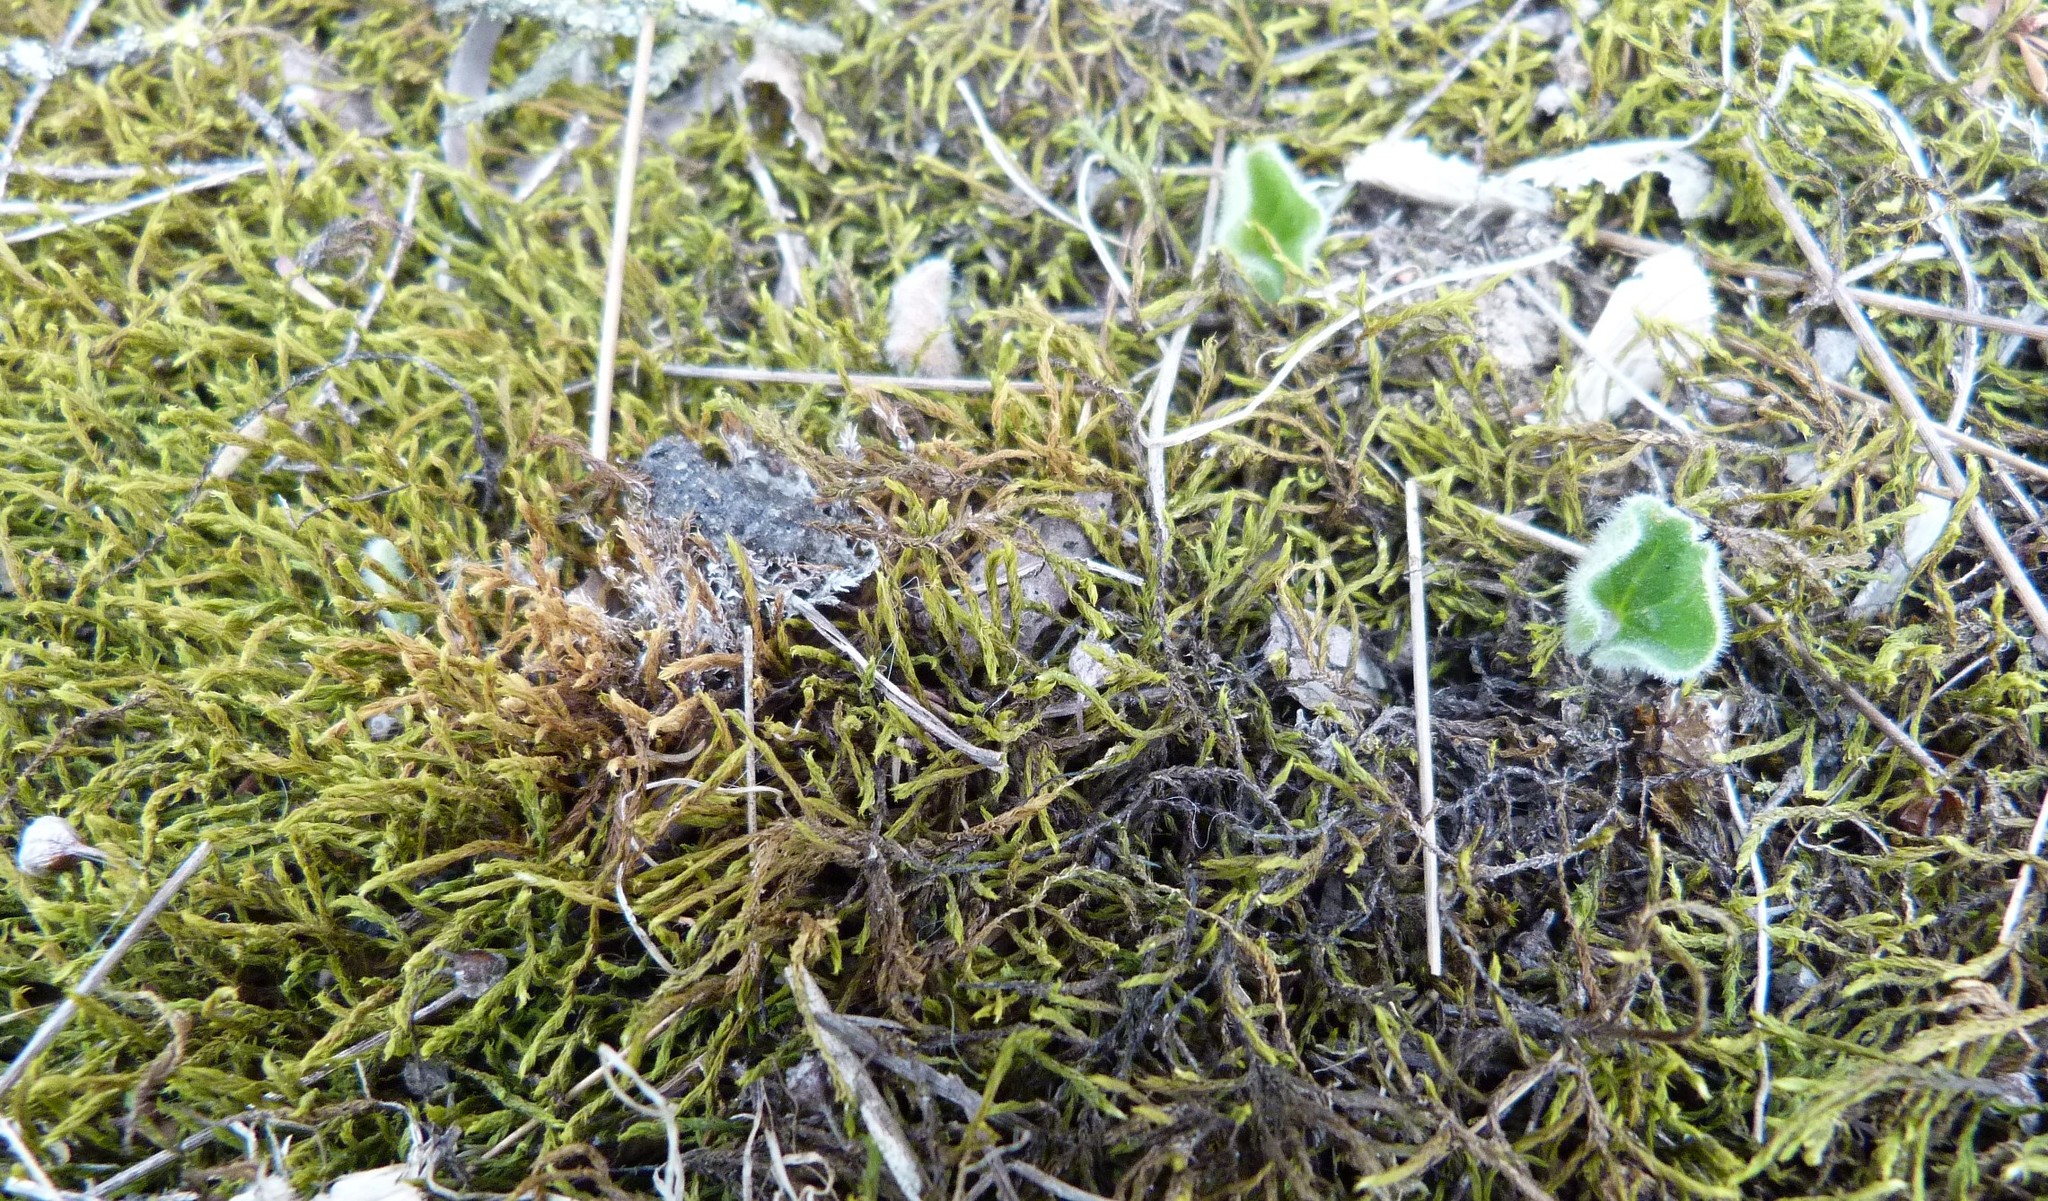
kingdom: Plantae
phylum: Bryophyta
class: Bryopsida
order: Pottiales
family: Pottiaceae
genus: Triquetrella
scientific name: Triquetrella papillata
